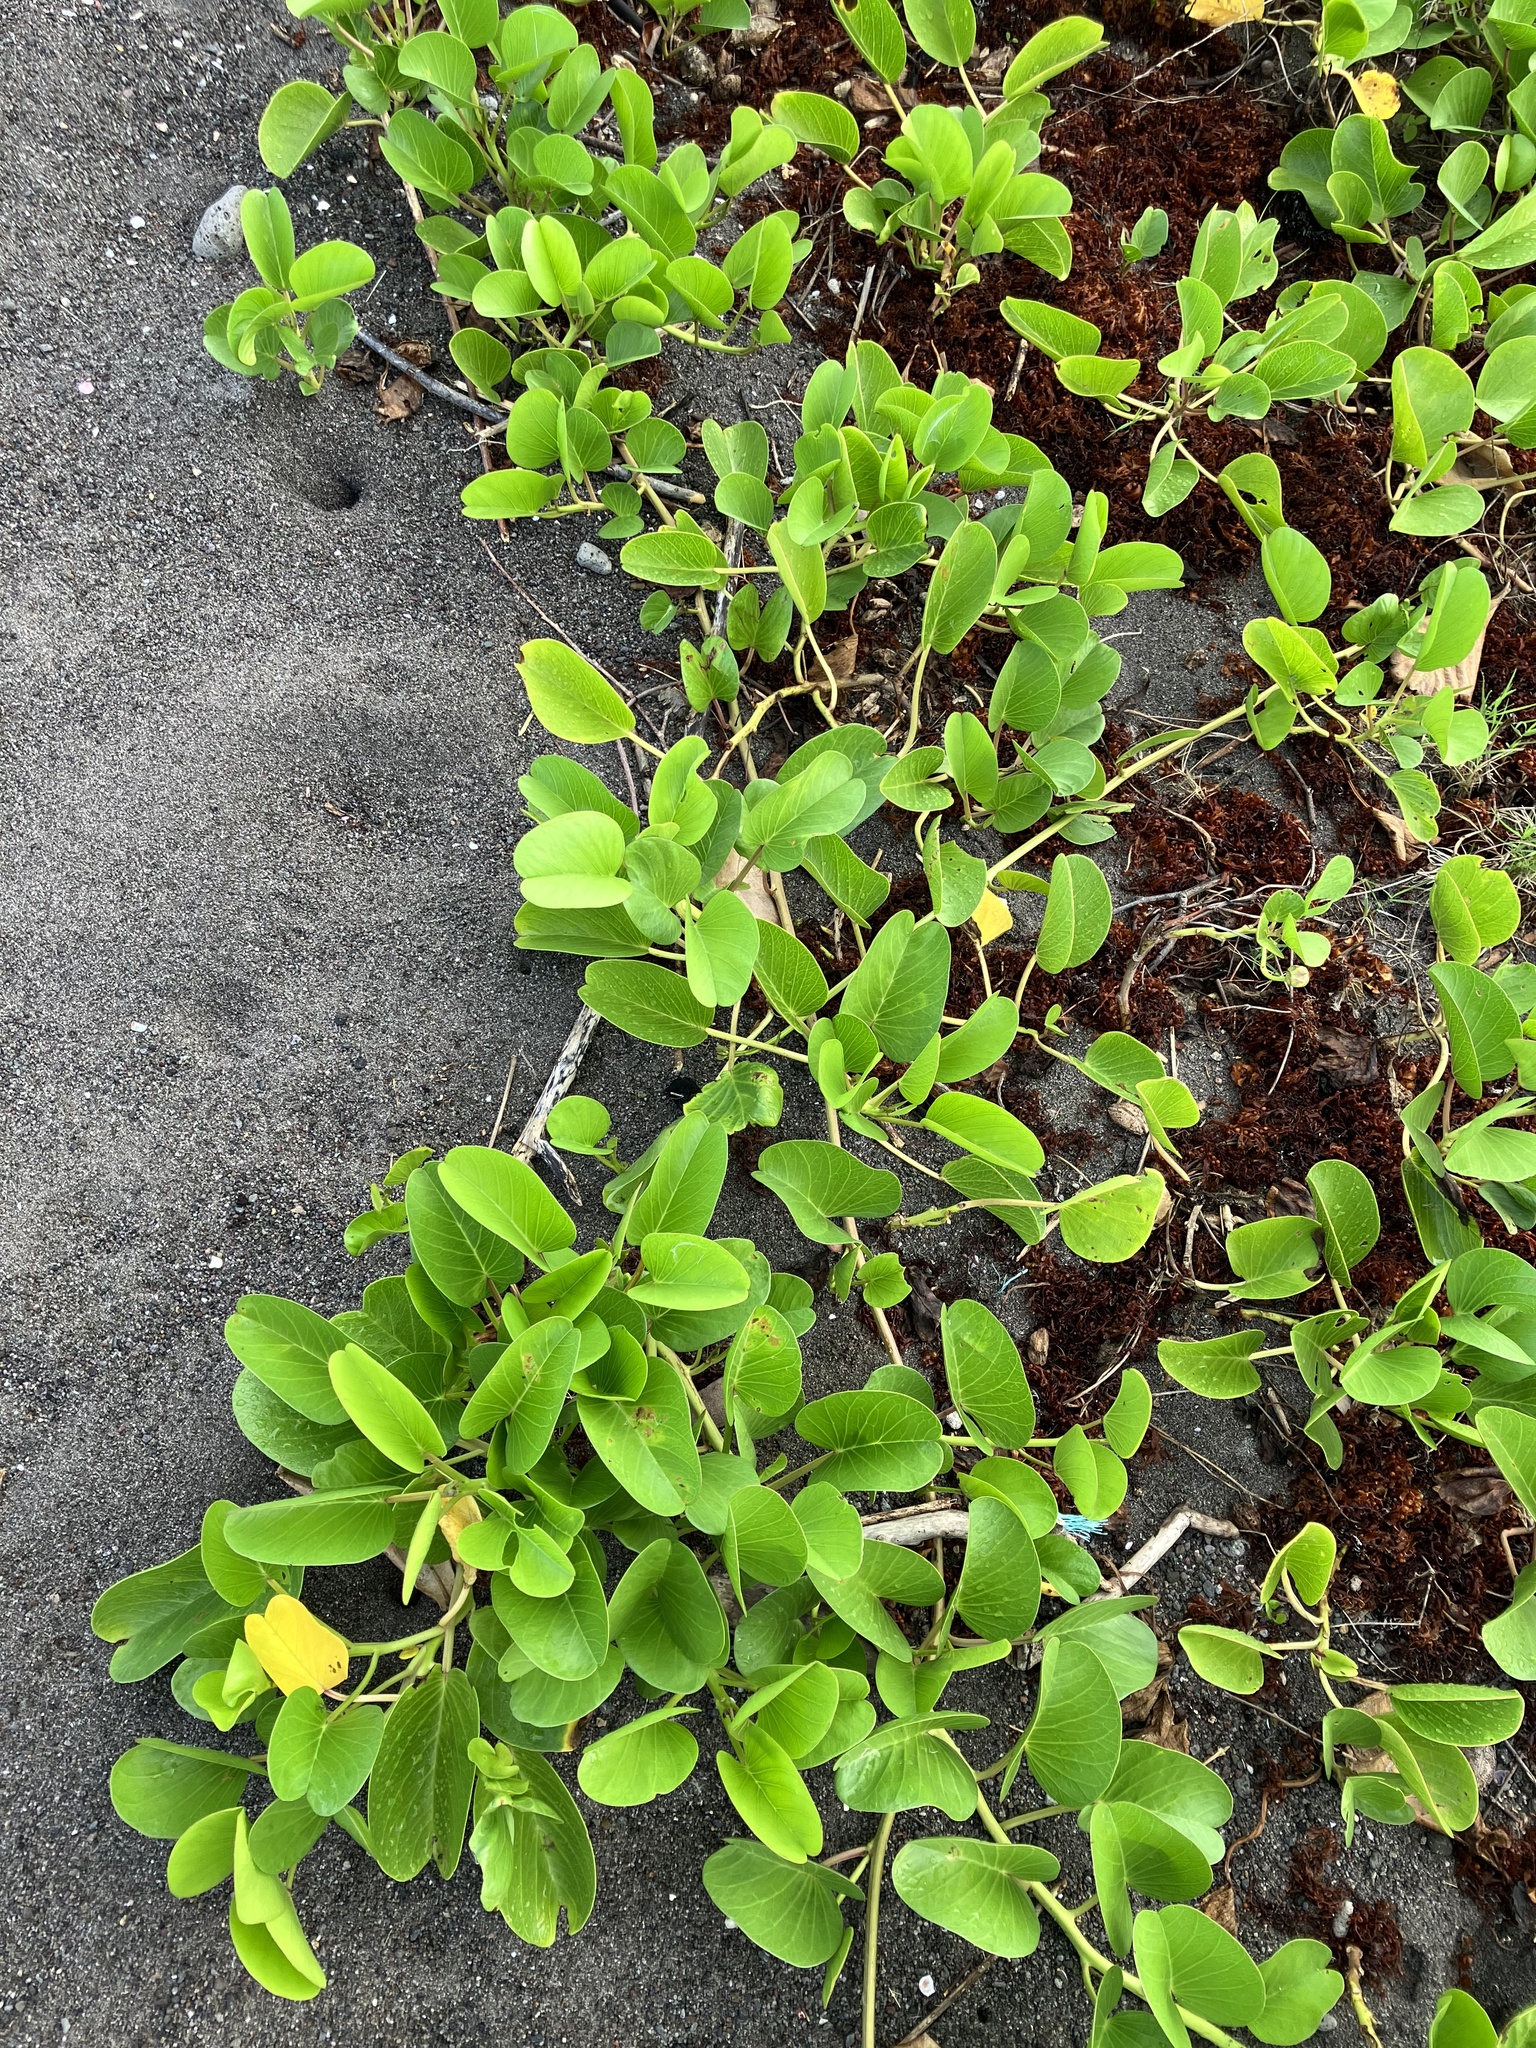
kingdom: Plantae
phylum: Tracheophyta
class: Magnoliopsida
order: Solanales
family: Convolvulaceae
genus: Ipomoea
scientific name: Ipomoea pes-caprae
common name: Beach morning glory
